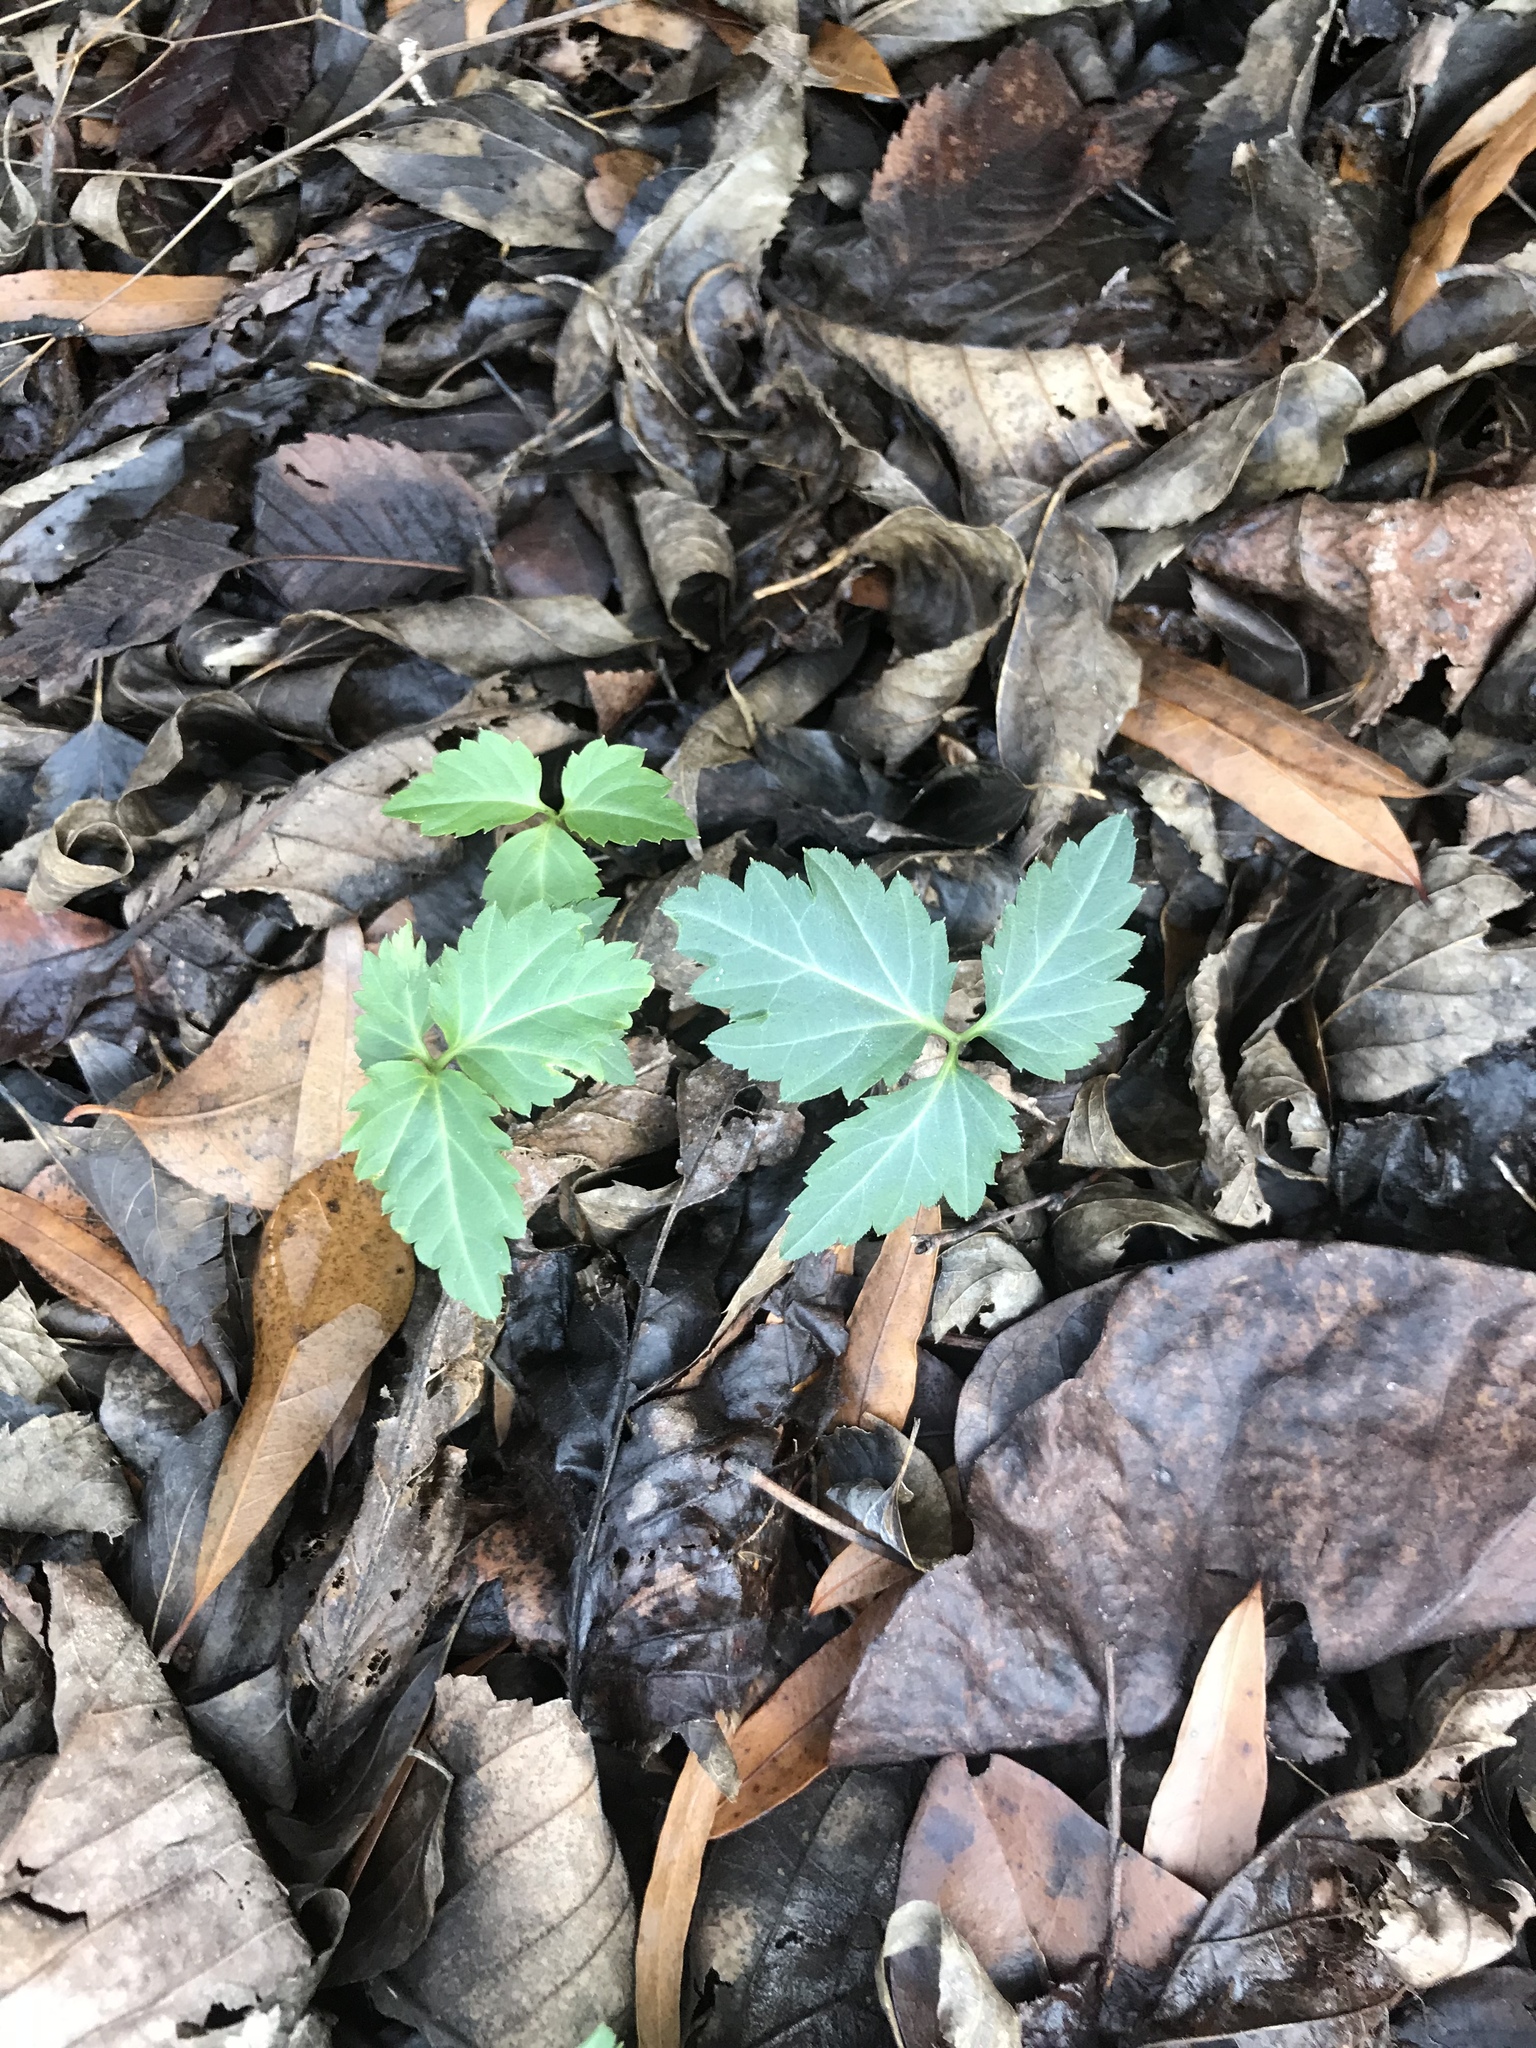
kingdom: Plantae
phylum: Tracheophyta
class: Magnoliopsida
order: Brassicales
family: Brassicaceae
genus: Cardamine
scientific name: Cardamine diphylla
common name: Broad-leaved toothwort
